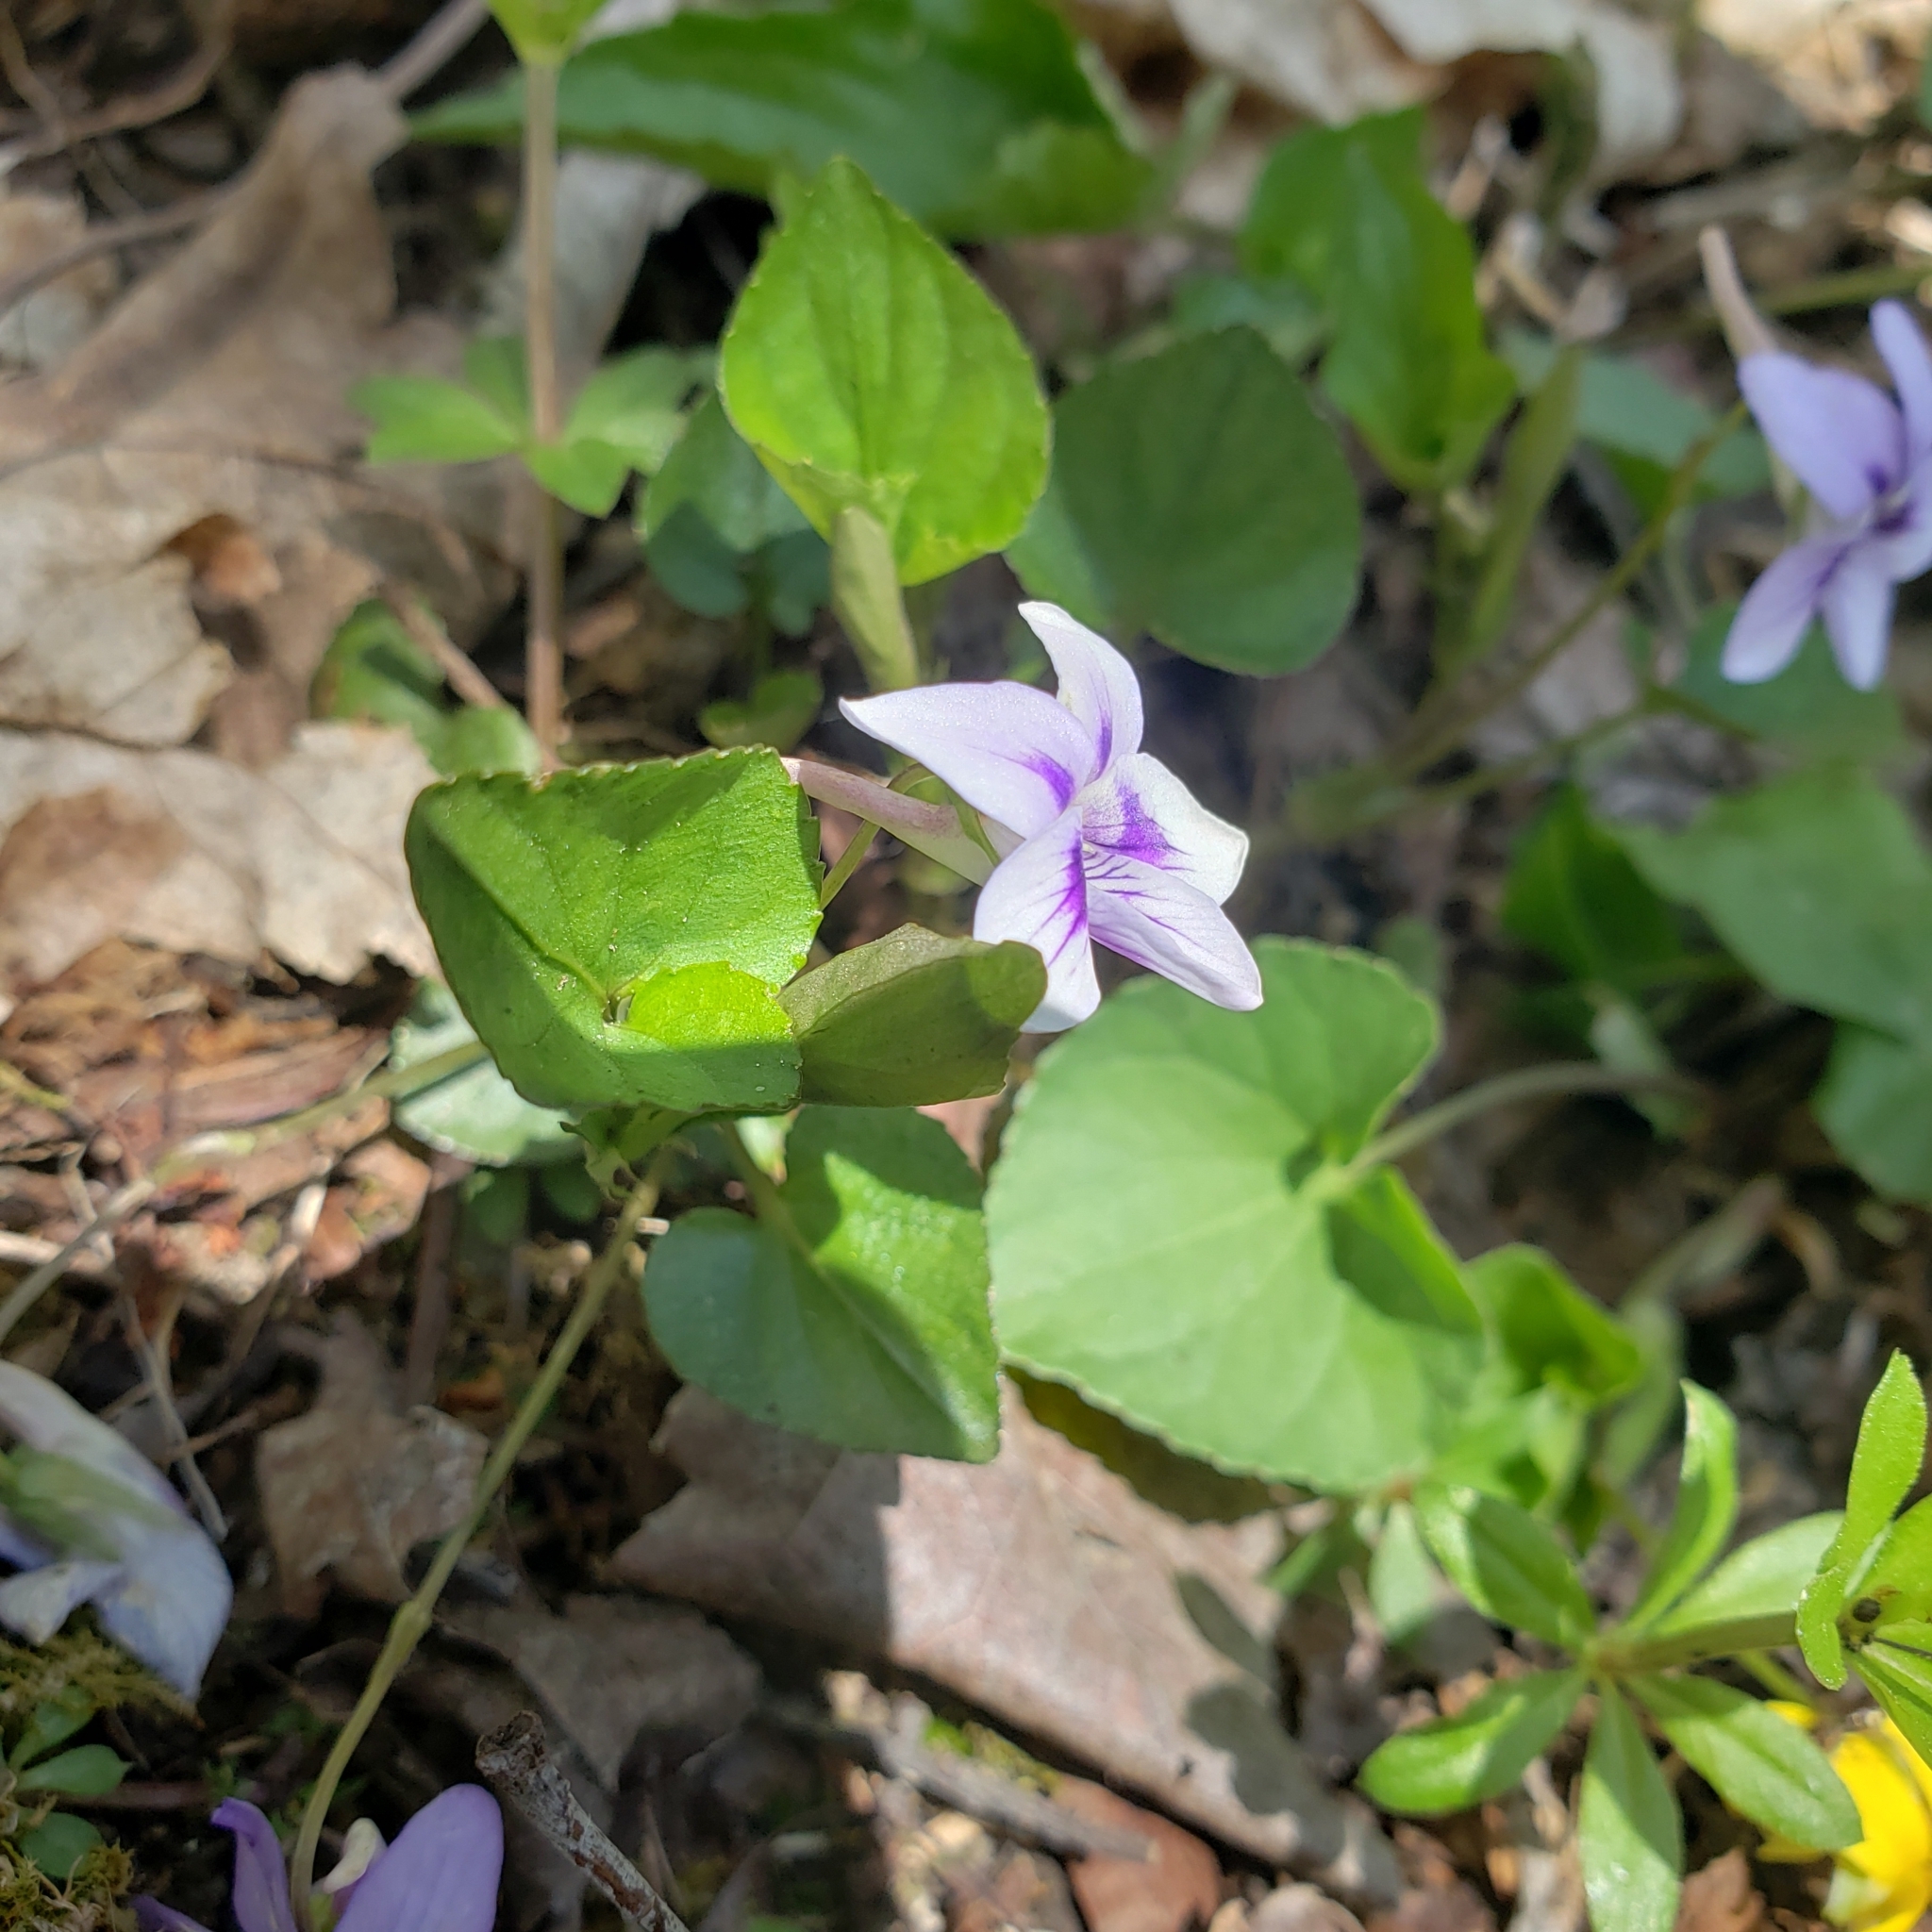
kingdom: Plantae
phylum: Tracheophyta
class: Magnoliopsida
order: Malpighiales
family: Violaceae
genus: Viola
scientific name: Viola rostrata
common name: Long-spur violet
